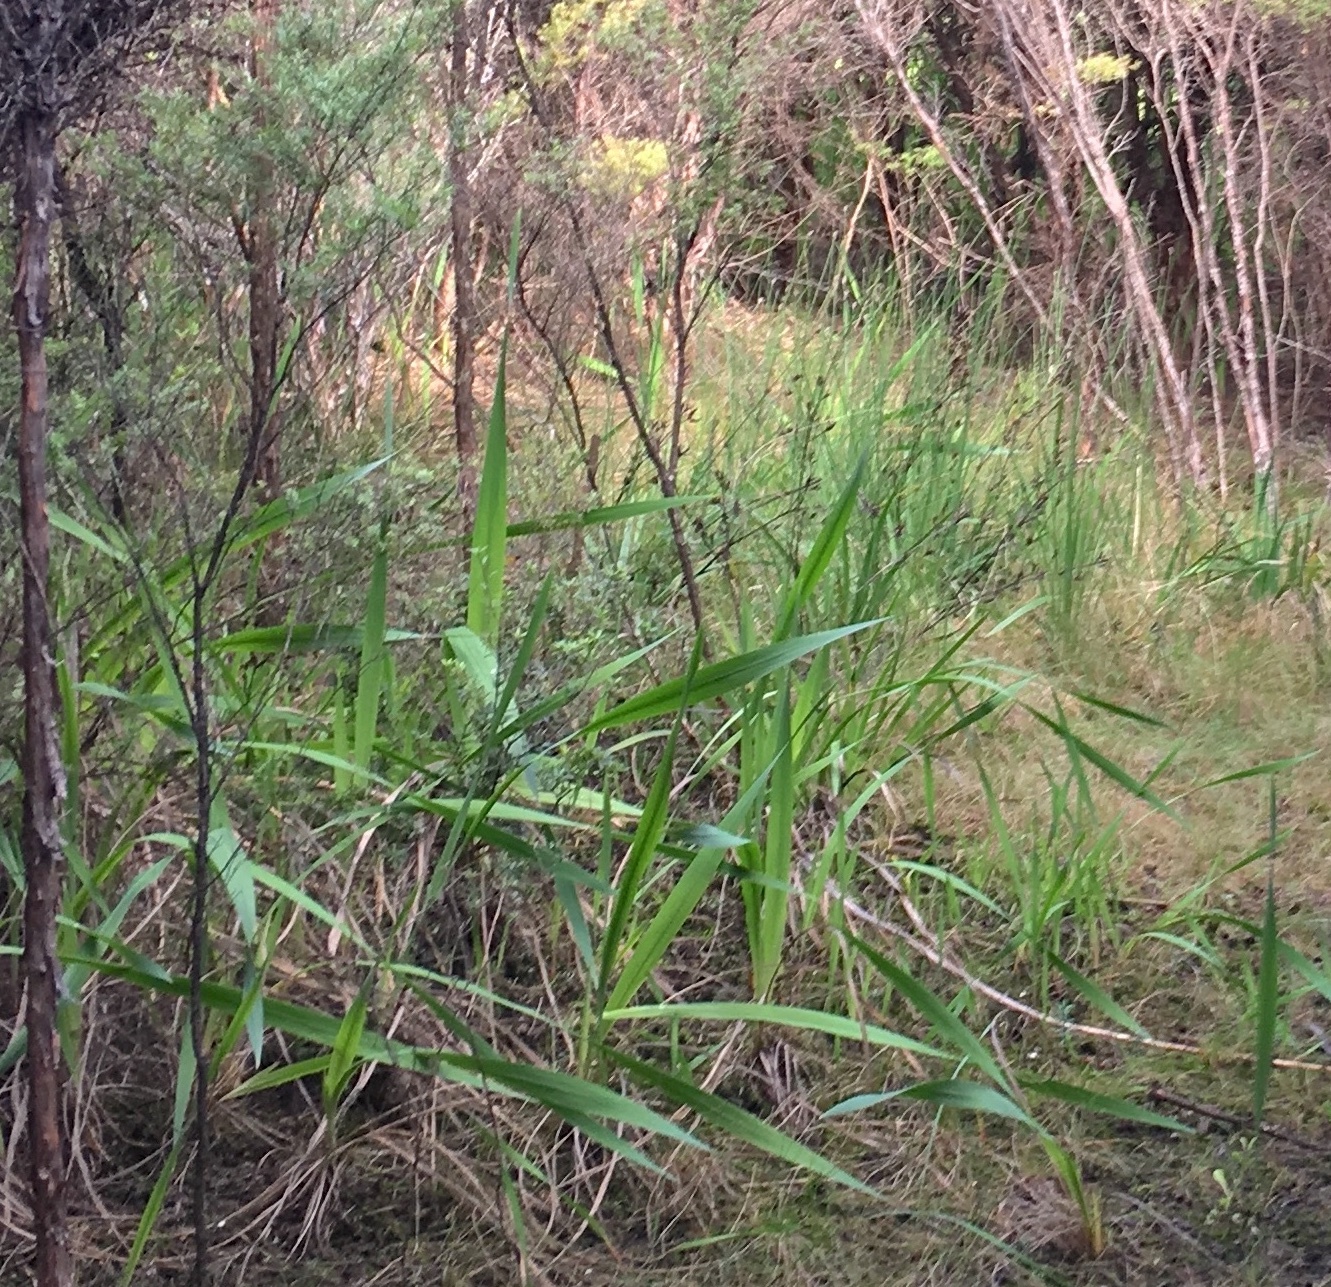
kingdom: Plantae
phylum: Tracheophyta
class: Liliopsida
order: Asparagales
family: Iridaceae
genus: Watsonia
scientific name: Watsonia meriana
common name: Bulbil bugle-lily
